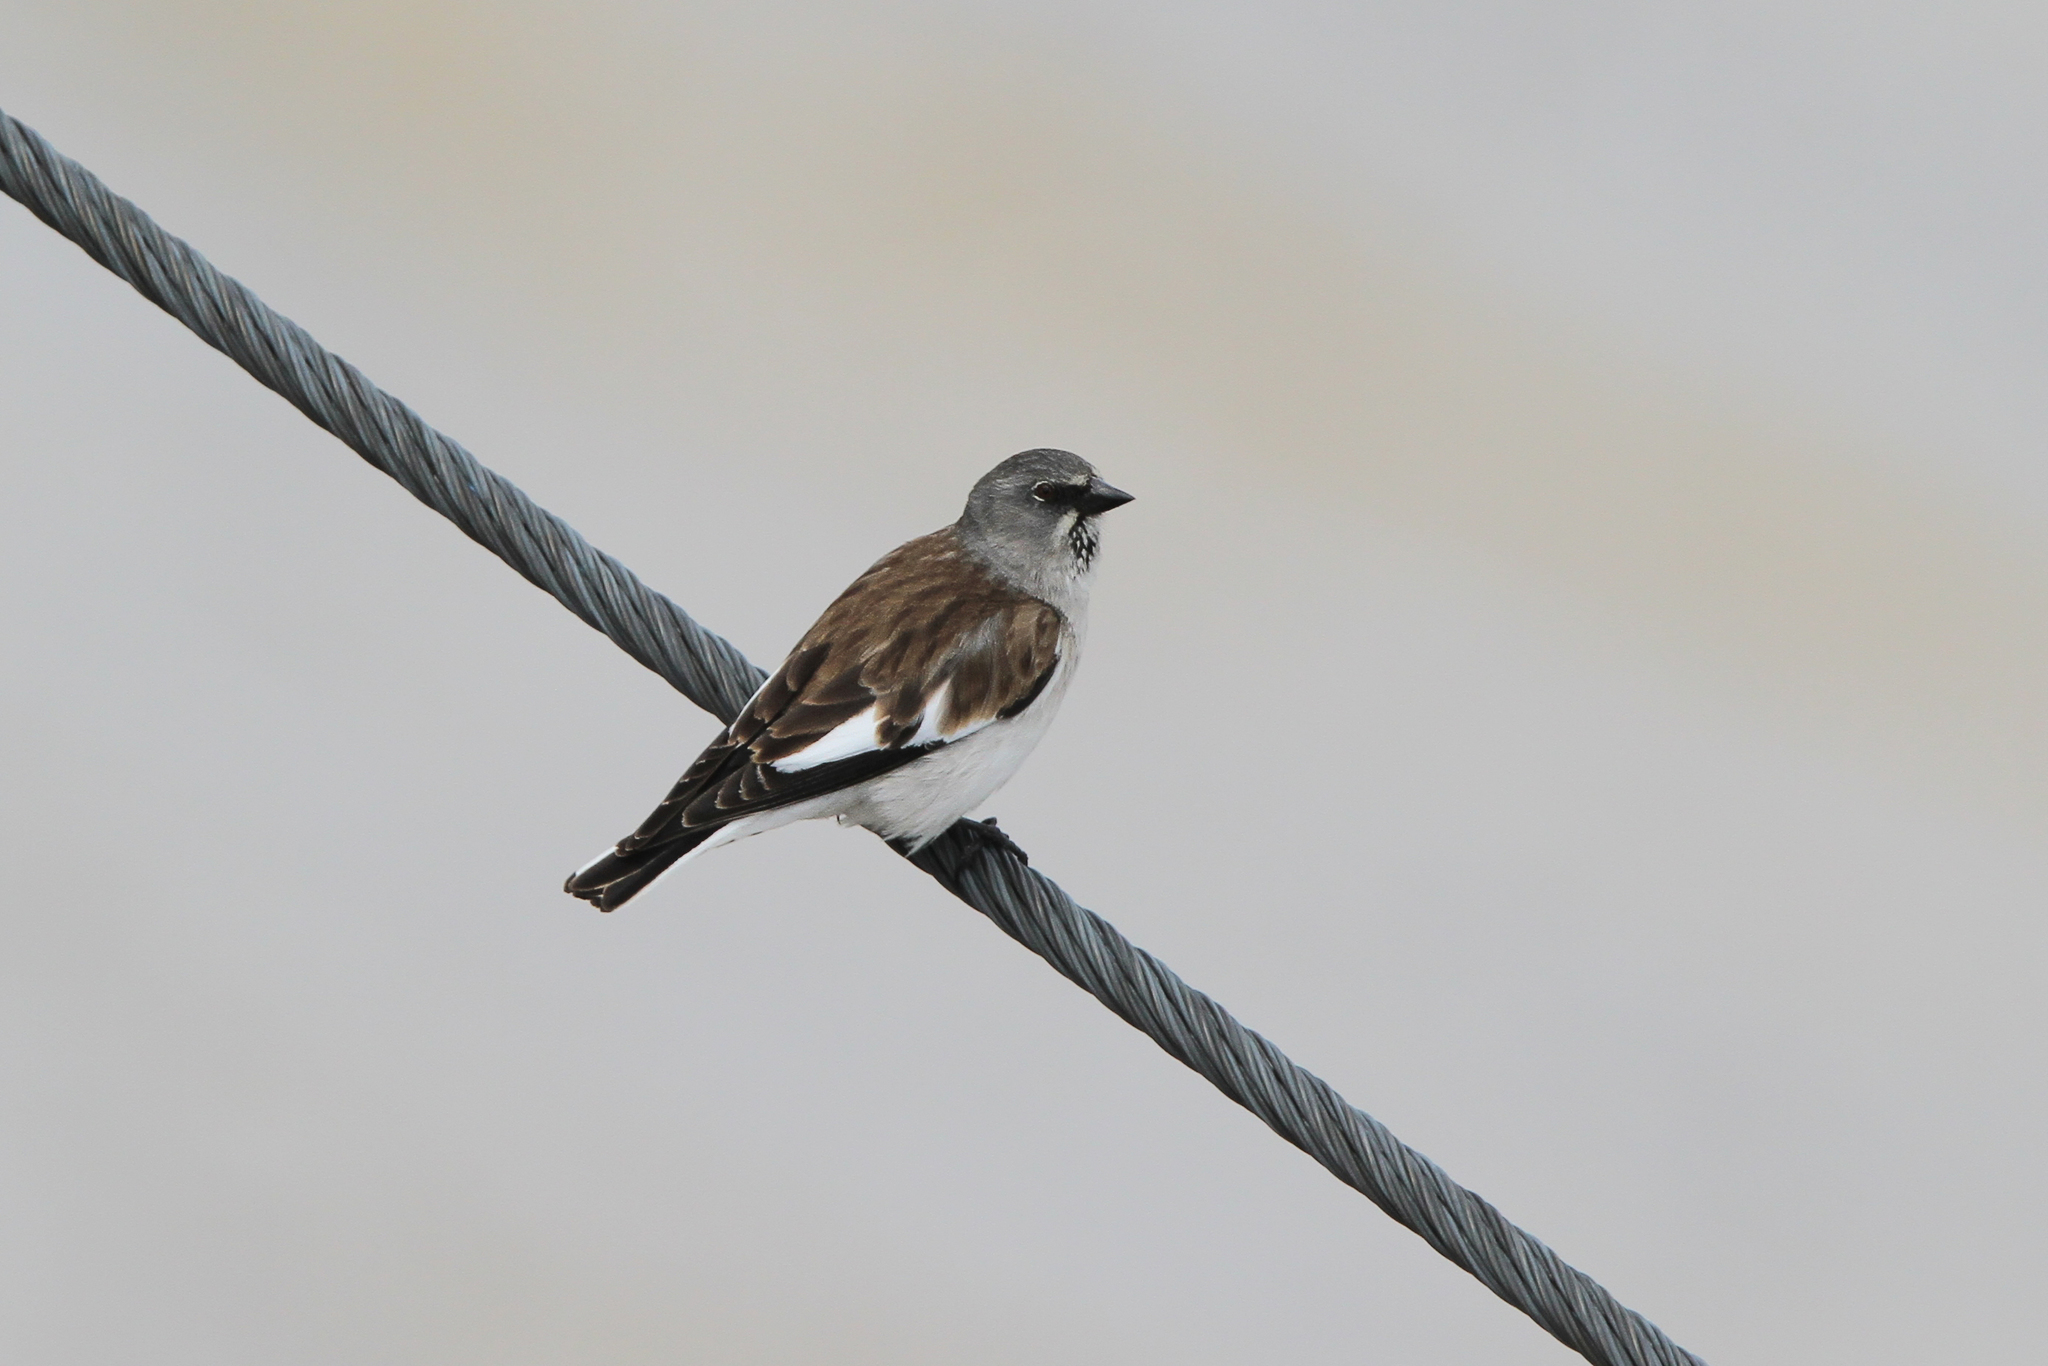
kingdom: Animalia
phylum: Chordata
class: Aves
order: Passeriformes
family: Passeridae
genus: Montifringilla
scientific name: Montifringilla nivalis
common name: White-winged snowfinch
